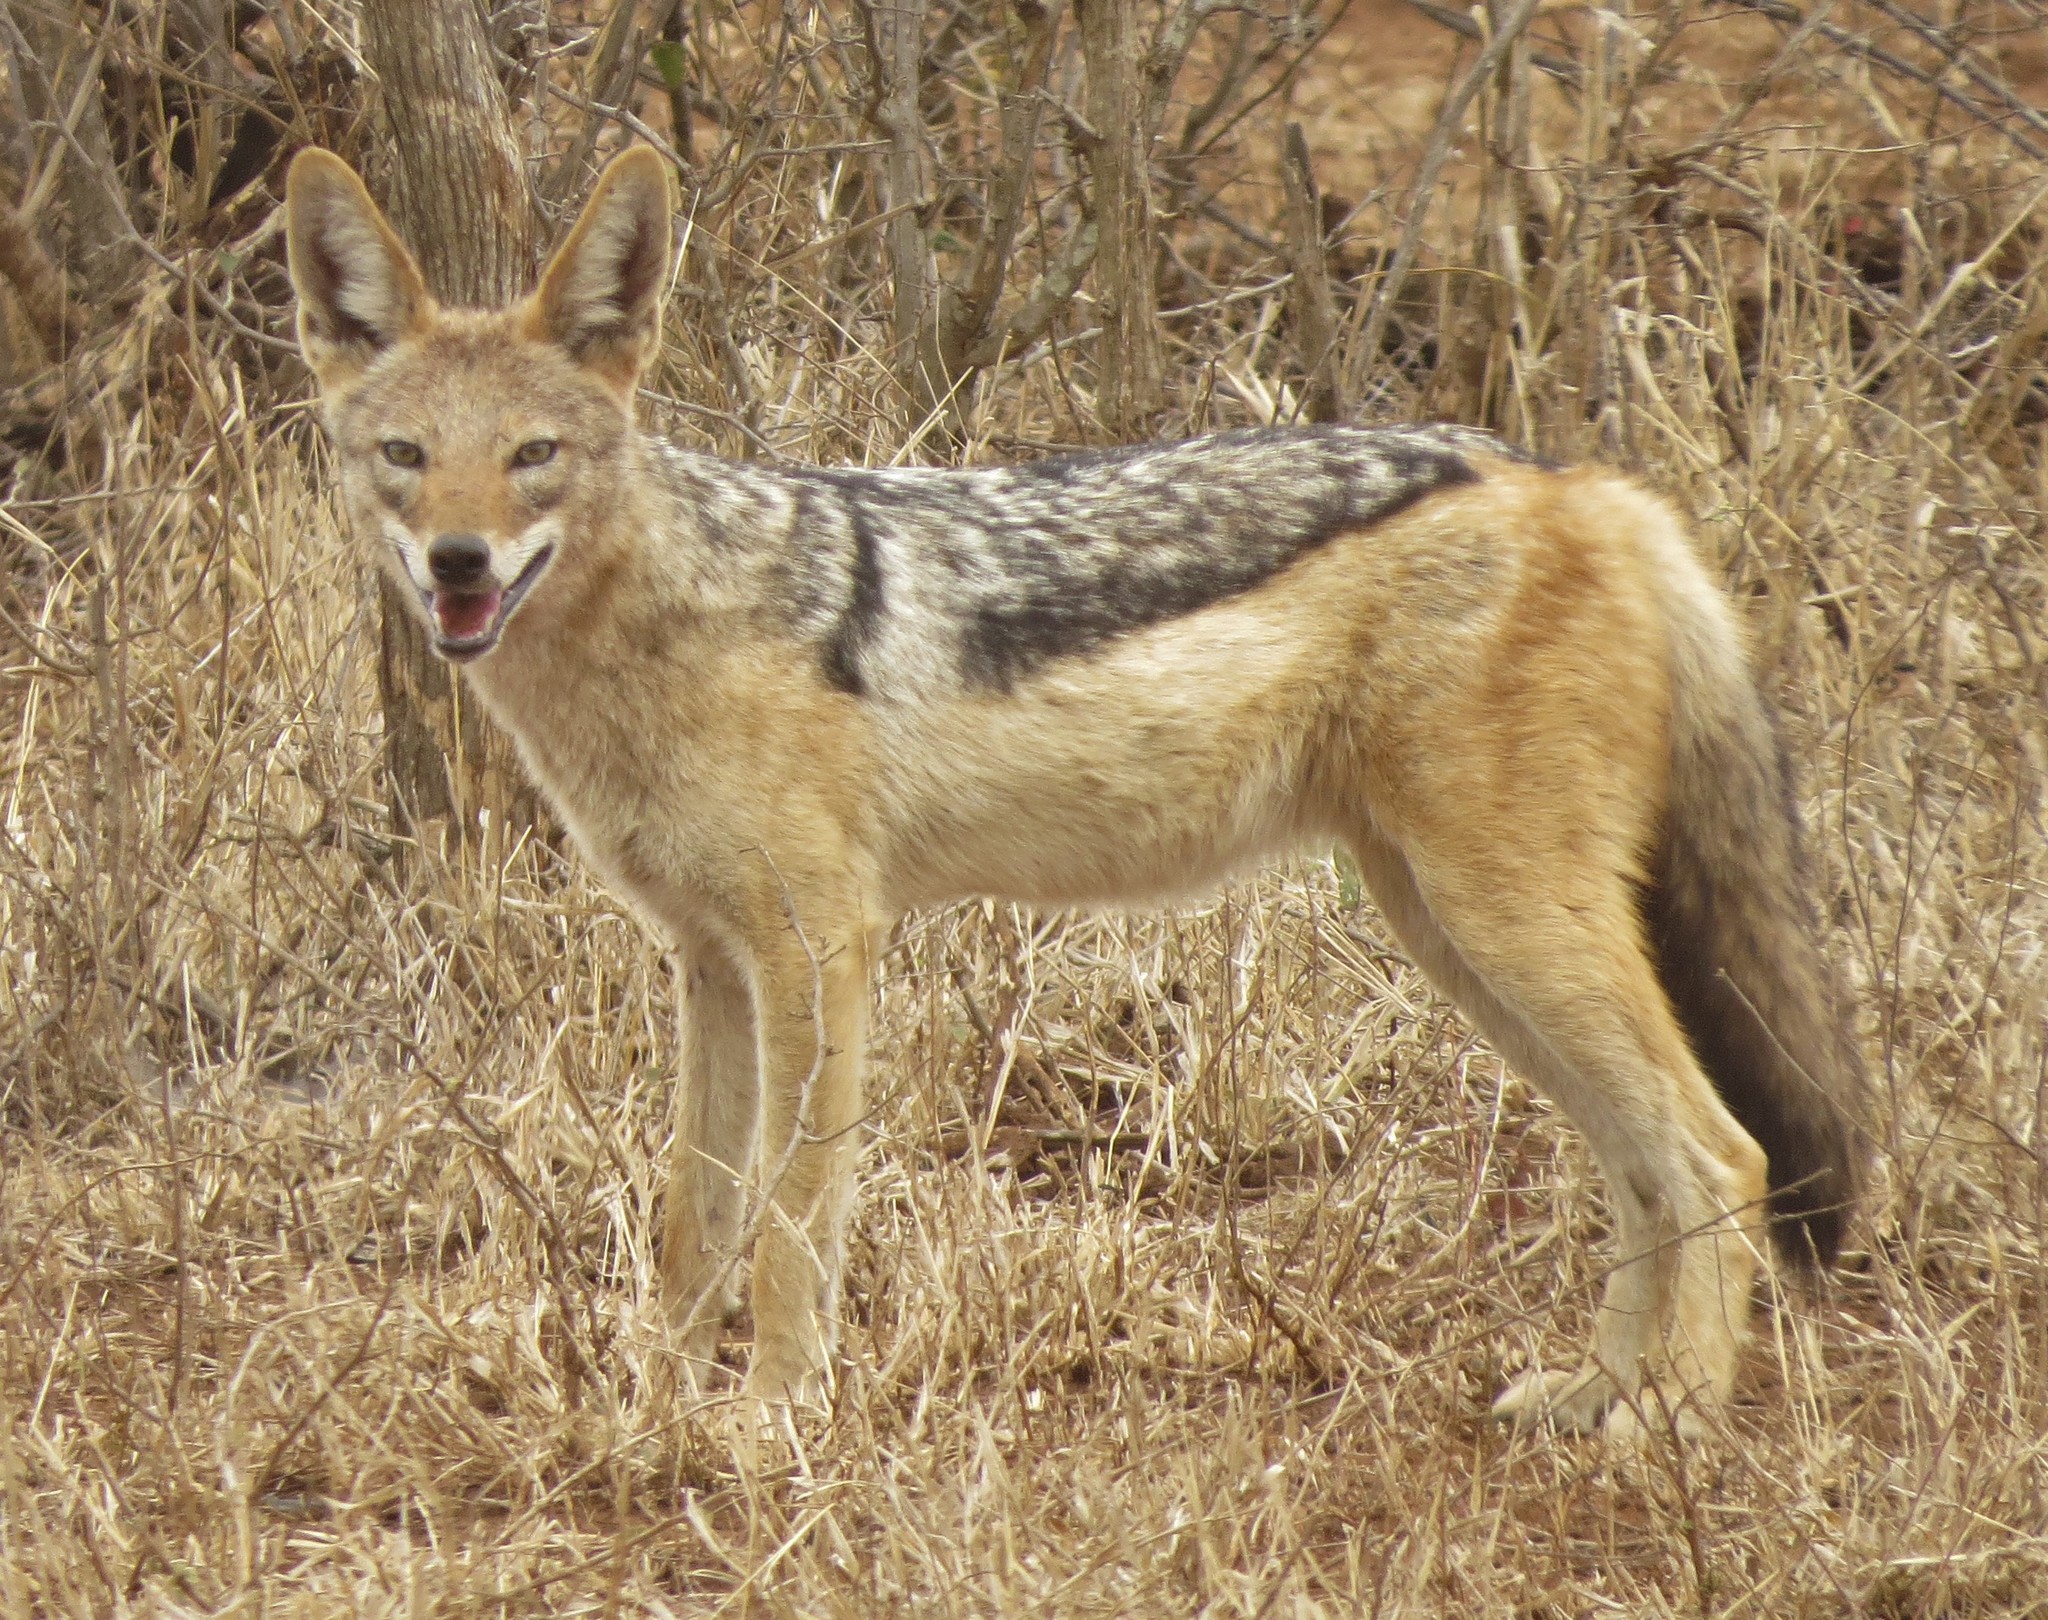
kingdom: Animalia
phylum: Chordata
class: Mammalia
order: Carnivora
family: Canidae
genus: Lupulella
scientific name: Lupulella
